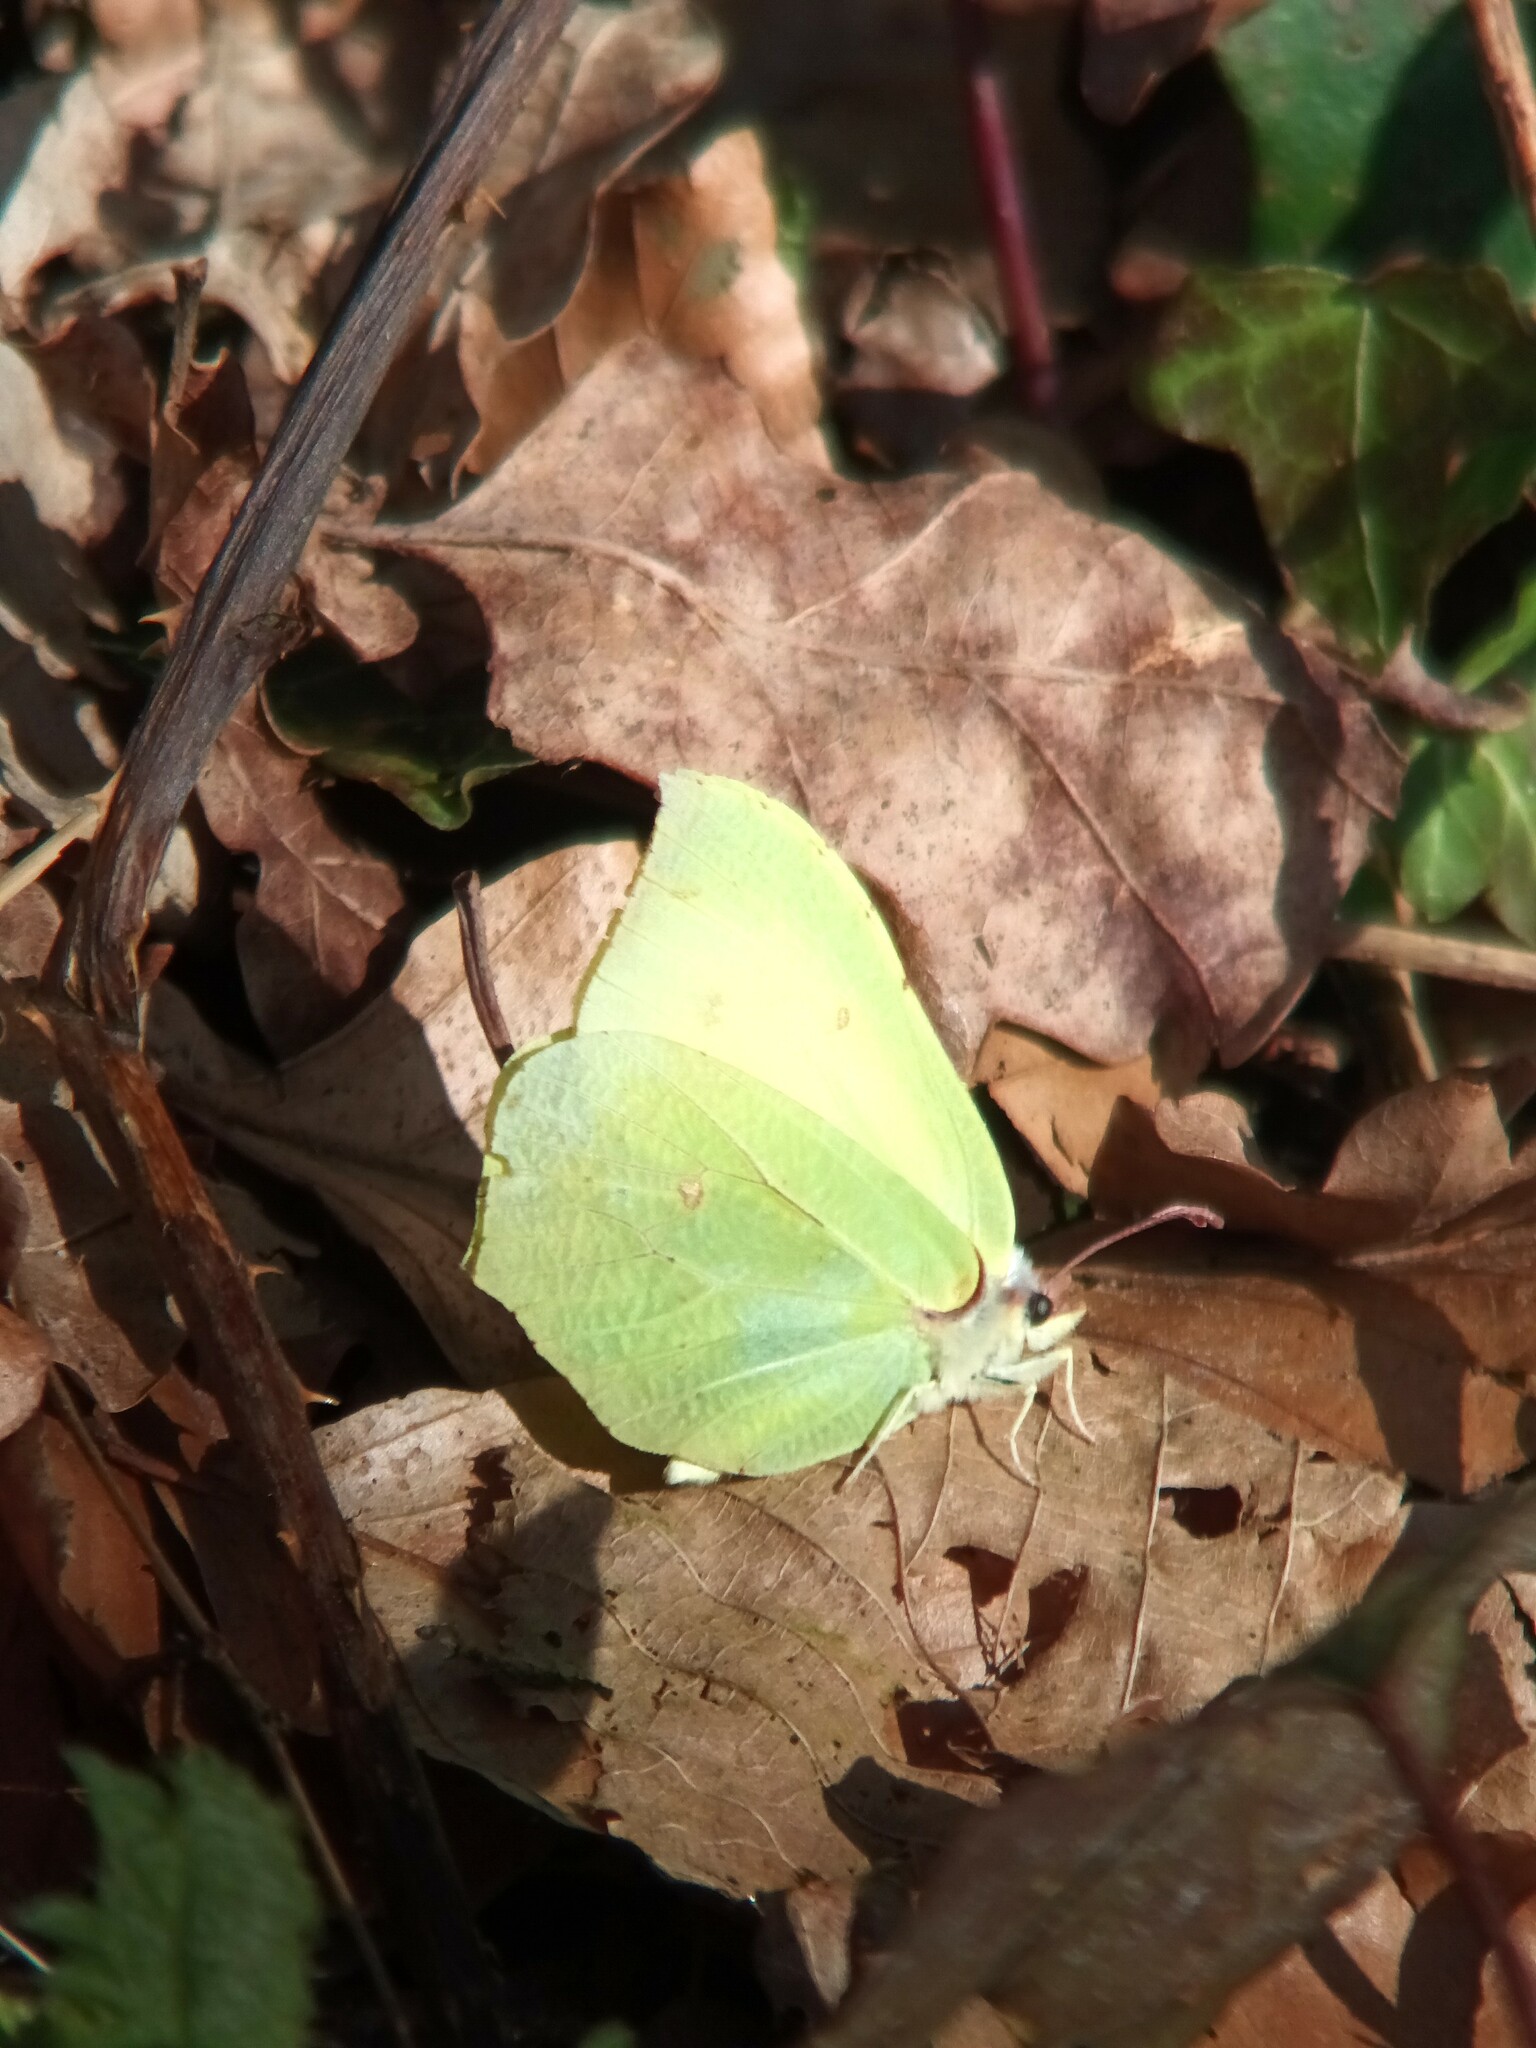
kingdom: Animalia
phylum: Arthropoda
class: Insecta
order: Lepidoptera
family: Pieridae
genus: Gonepteryx
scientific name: Gonepteryx rhamni
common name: Brimstone
